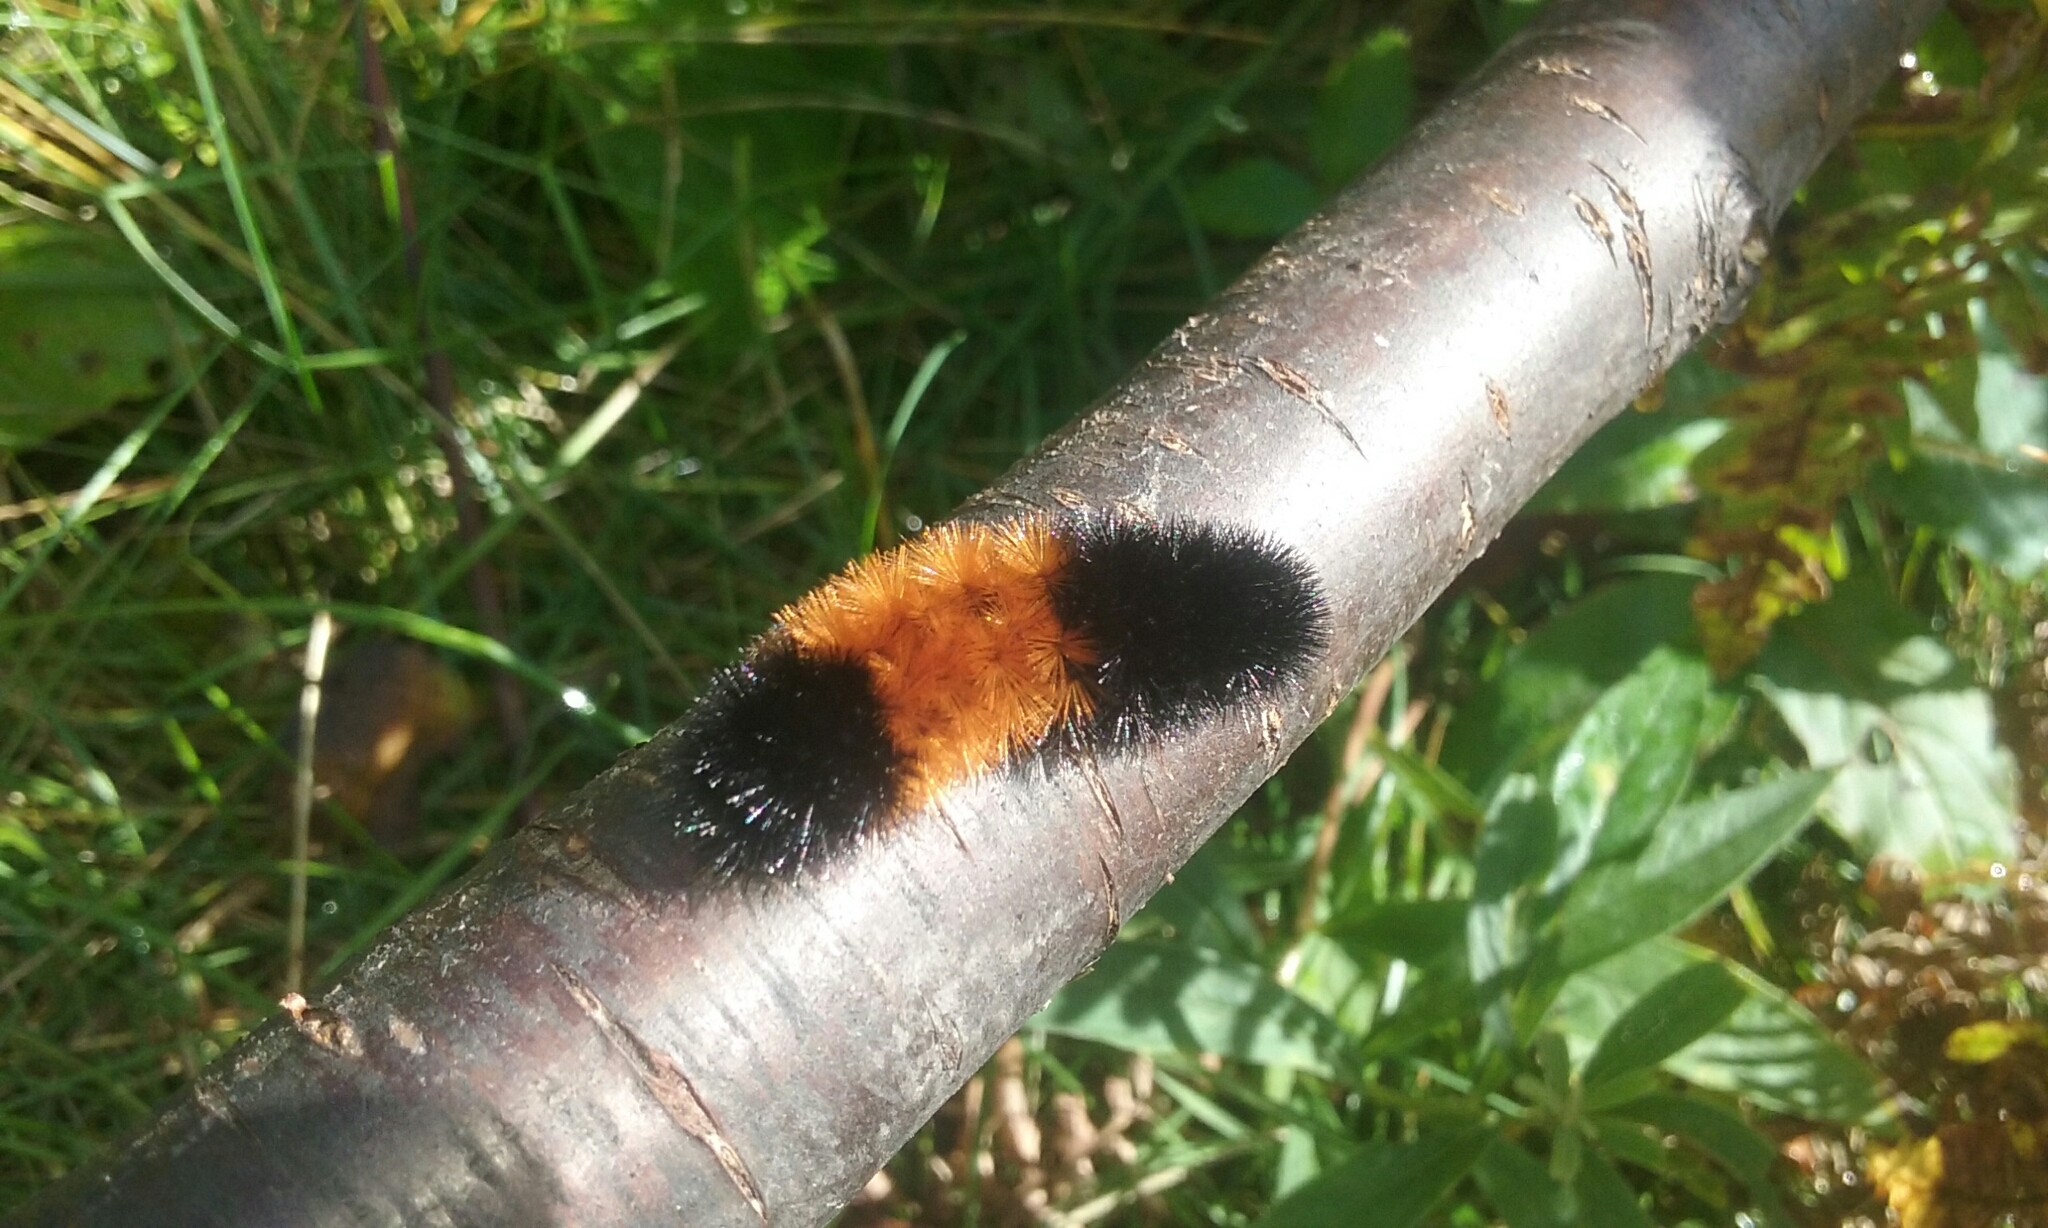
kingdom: Animalia
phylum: Arthropoda
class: Insecta
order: Lepidoptera
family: Erebidae
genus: Pyrrharctia
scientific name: Pyrrharctia isabella
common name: Isabella tiger moth
